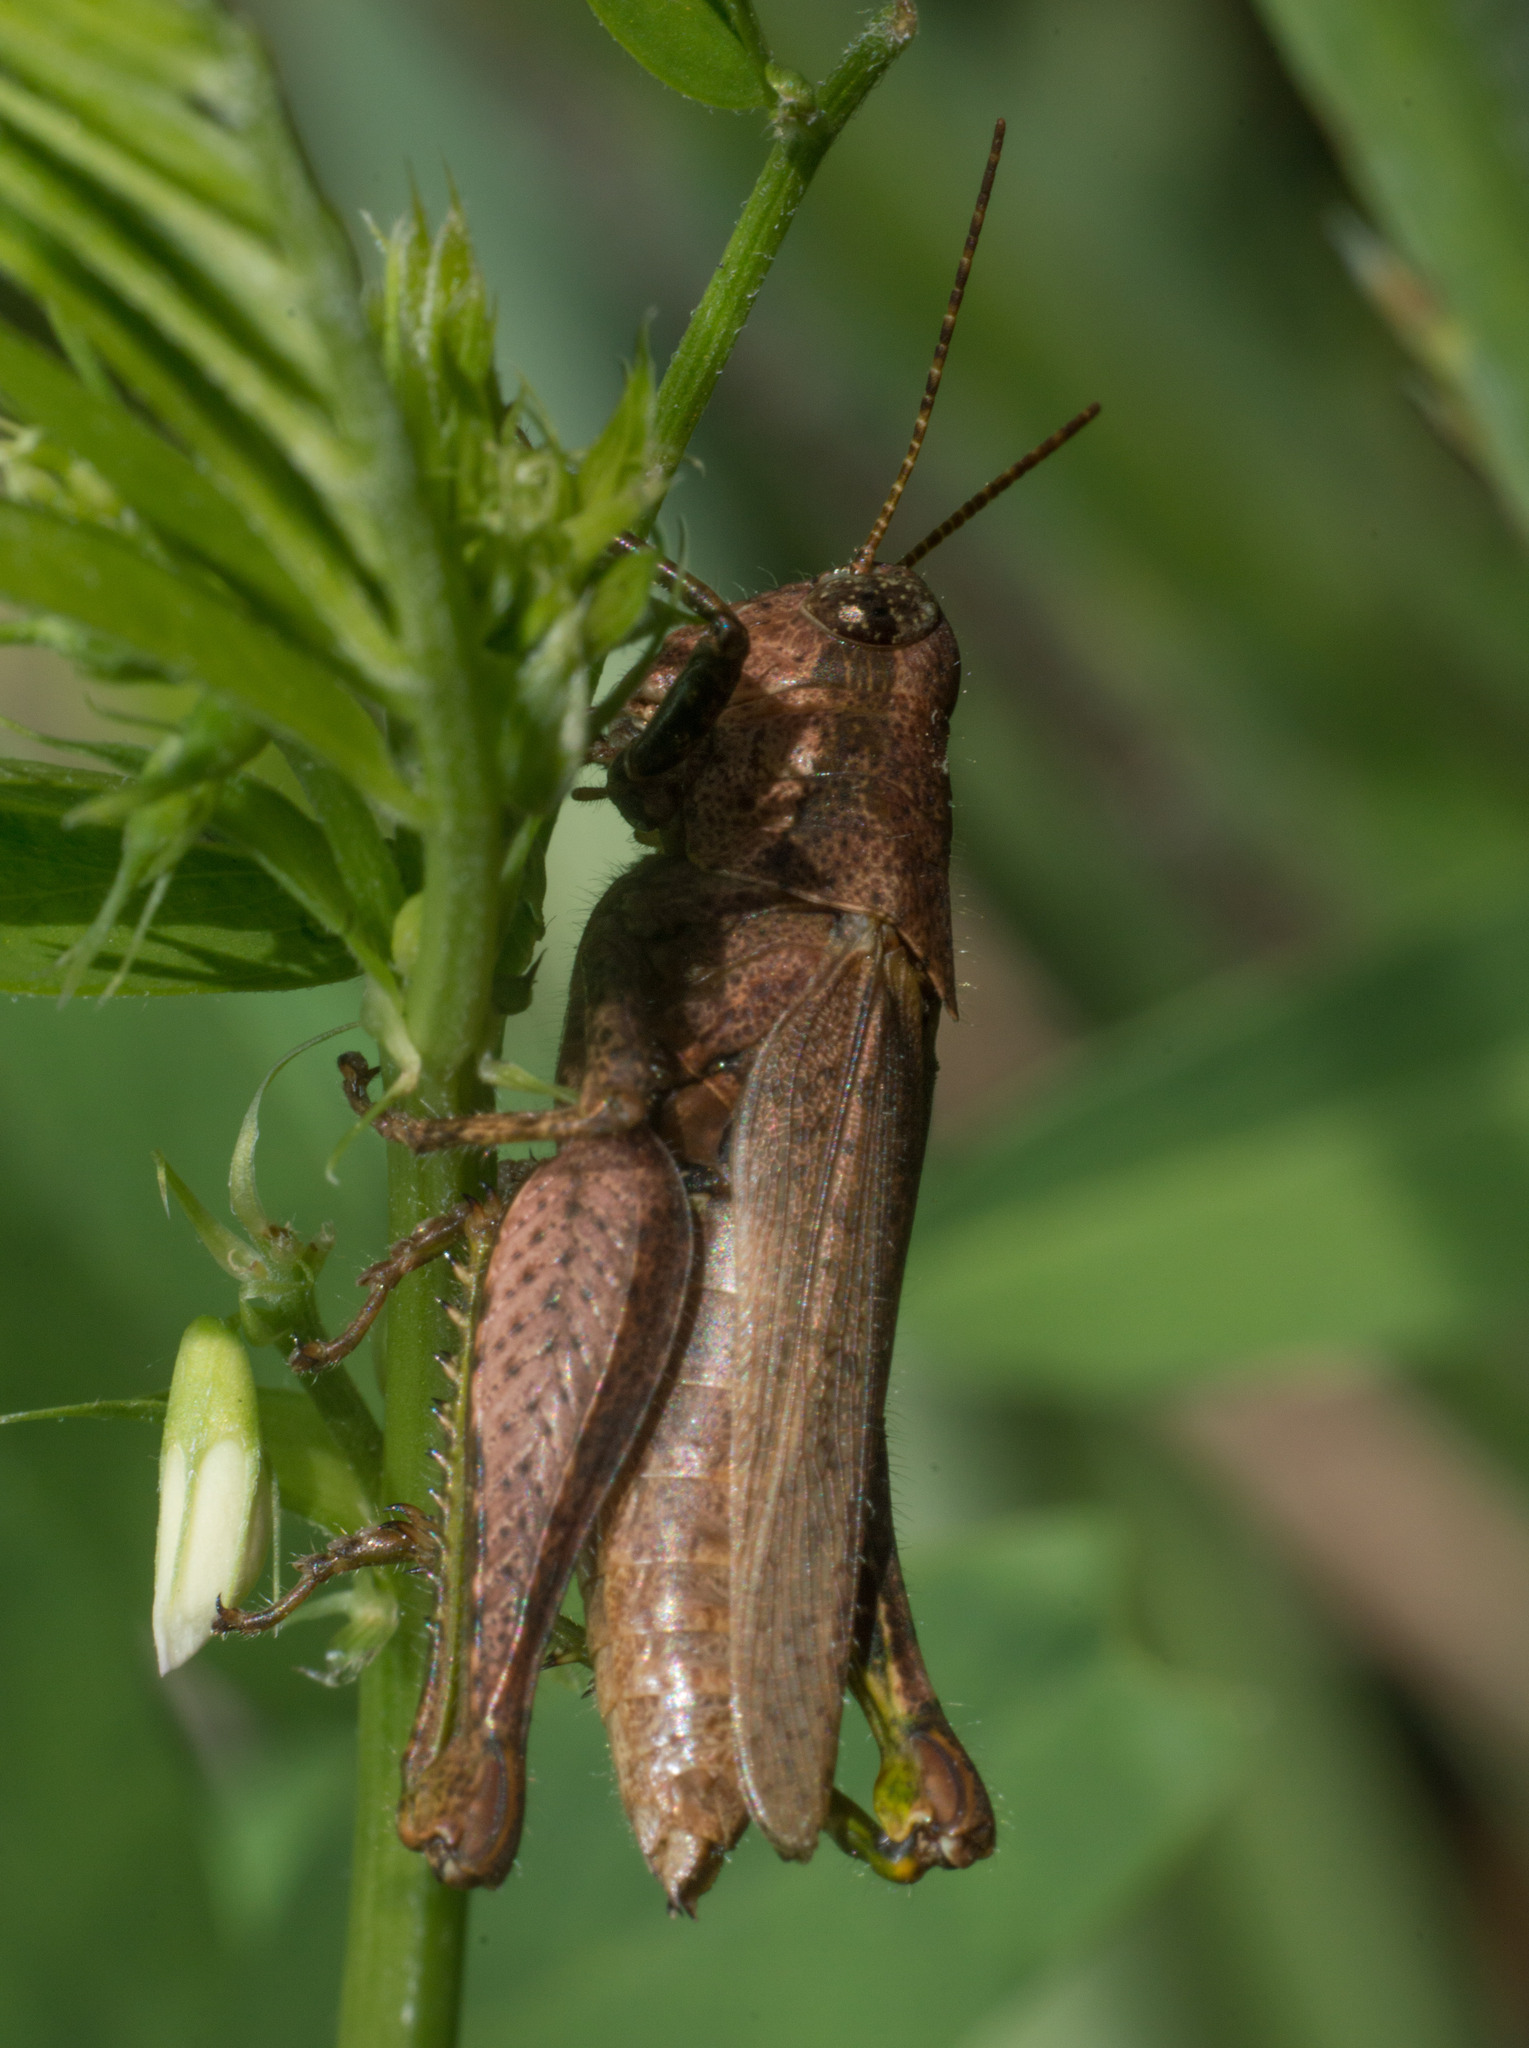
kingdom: Animalia
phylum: Arthropoda
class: Insecta
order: Orthoptera
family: Acrididae
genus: Ronderosia
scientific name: Ronderosia bergii
